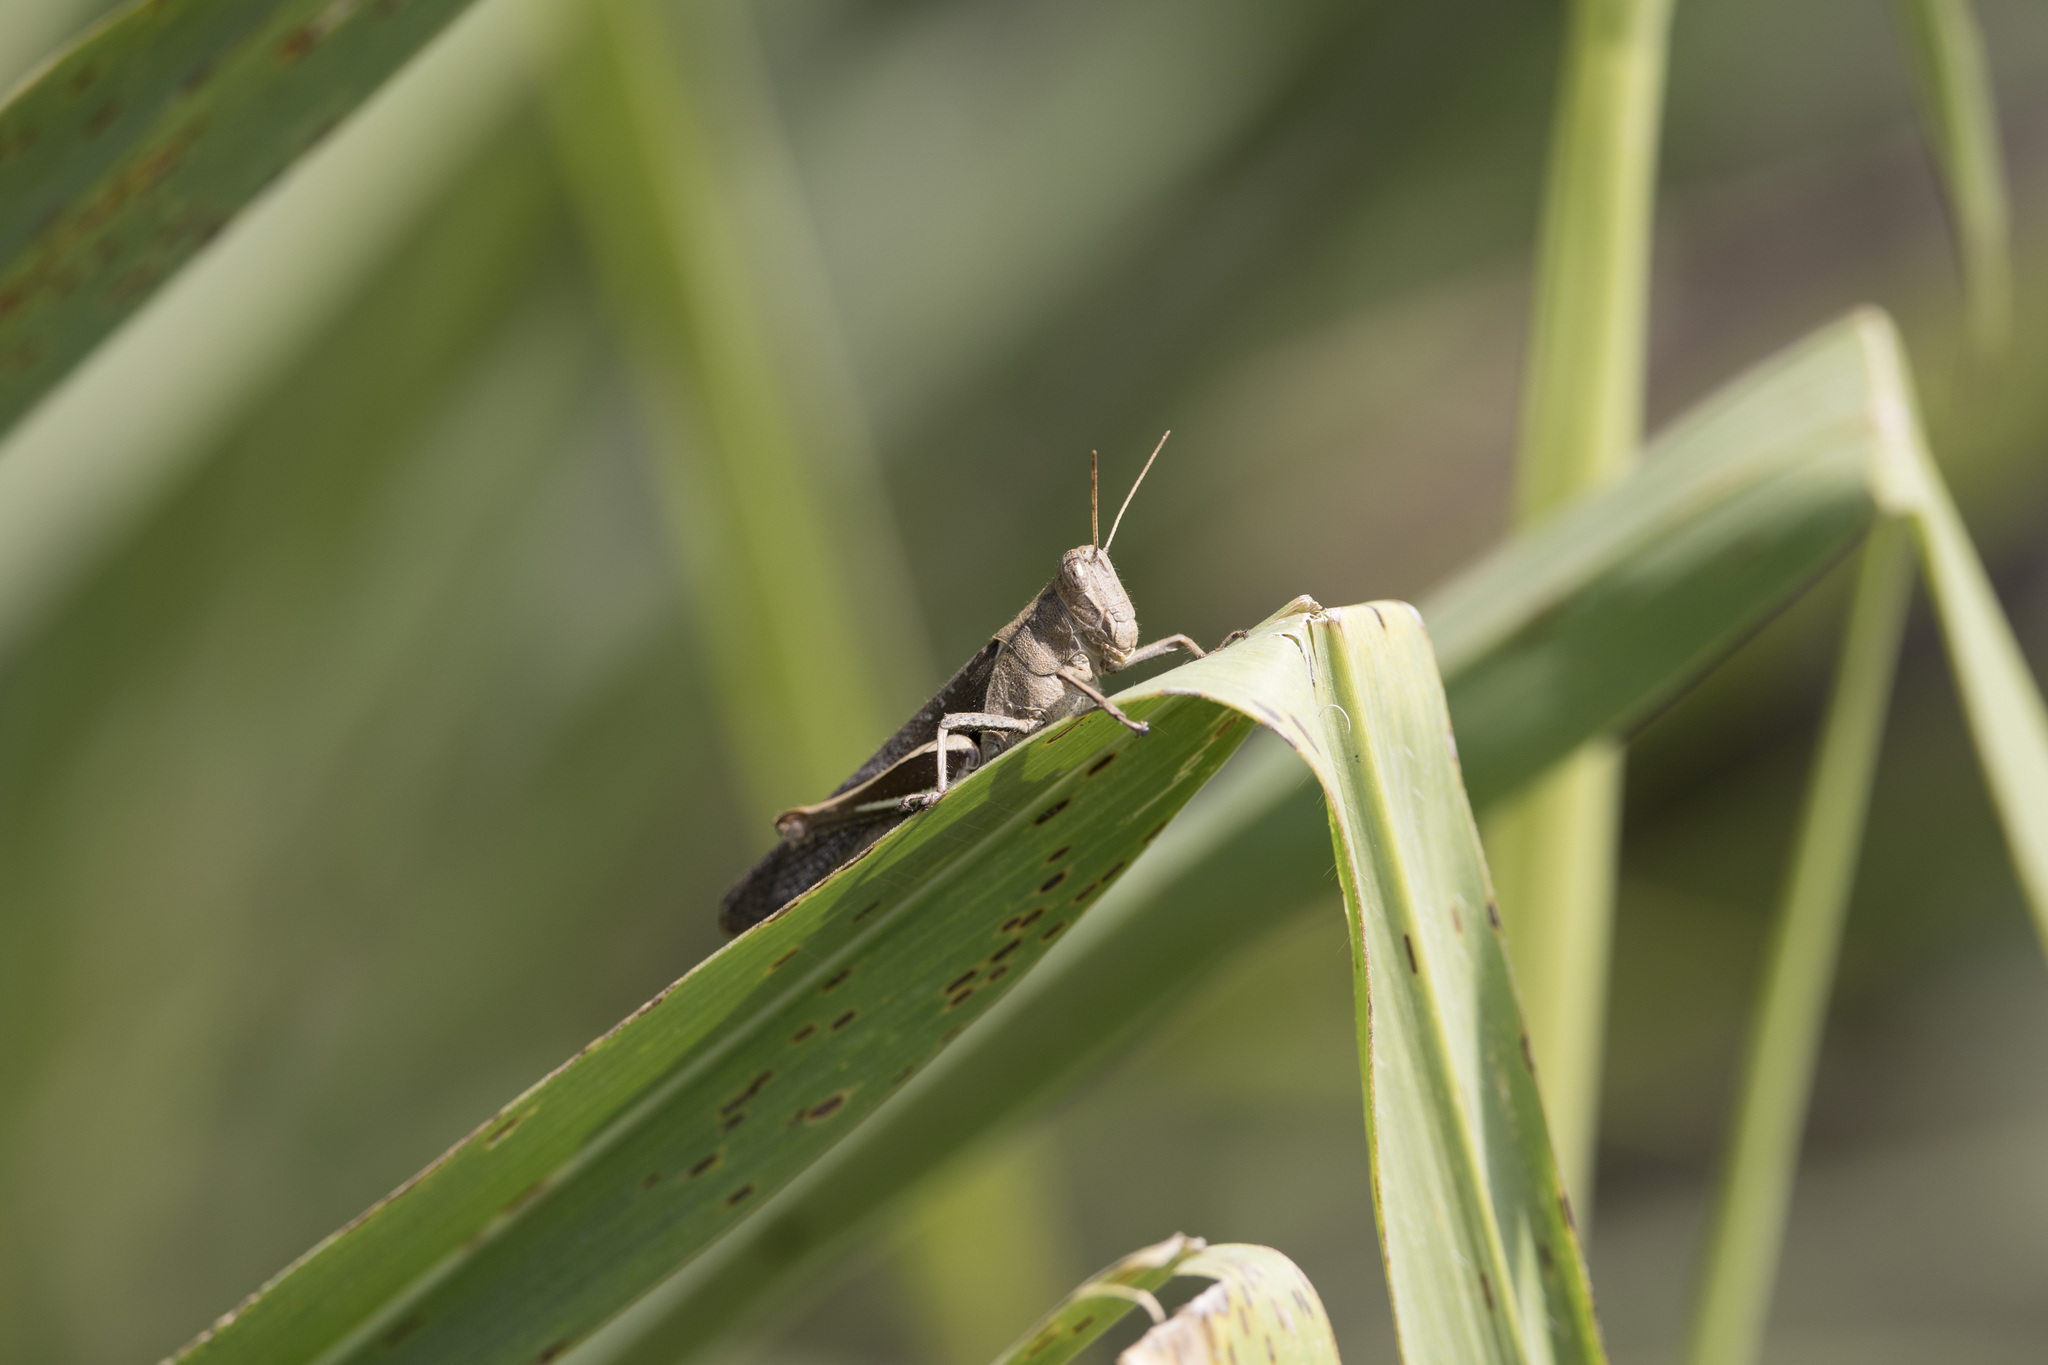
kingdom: Animalia
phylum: Arthropoda
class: Insecta
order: Orthoptera
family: Acrididae
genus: Abracris
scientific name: Abracris flavolineata
